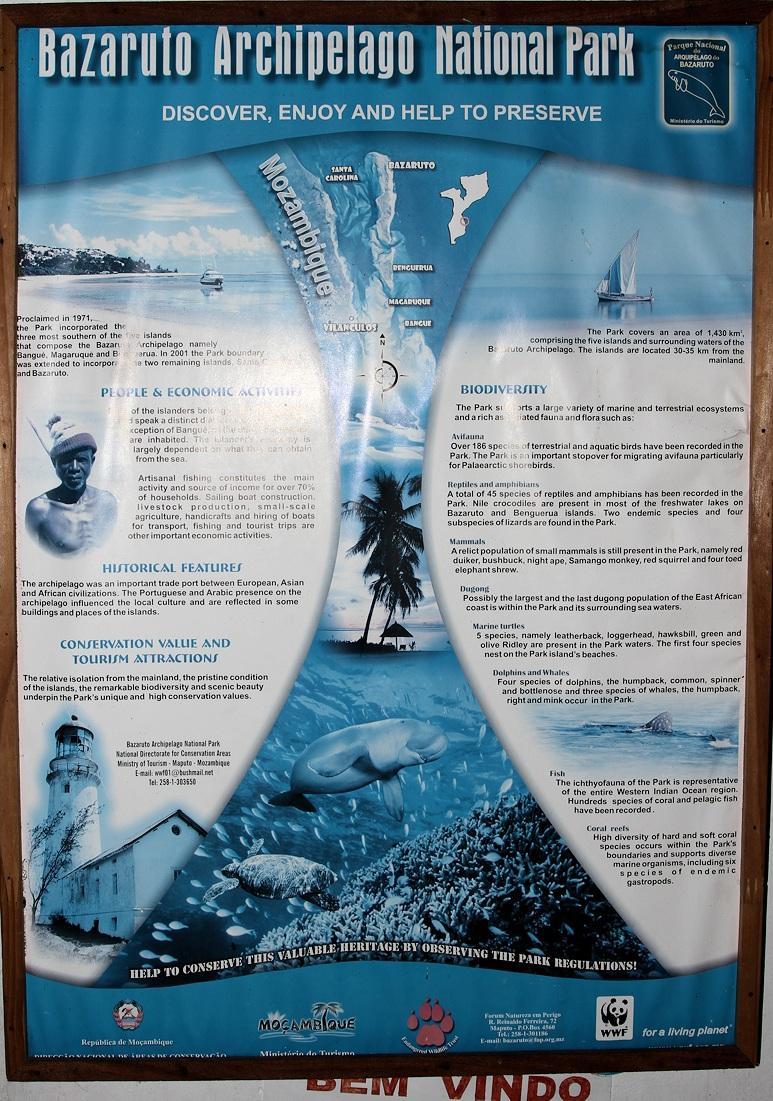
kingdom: Animalia
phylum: Chordata
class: Aves
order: Charadriiformes
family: Charadriidae
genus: Charadrius
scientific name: Charadrius hiaticula
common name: Common ringed plover
